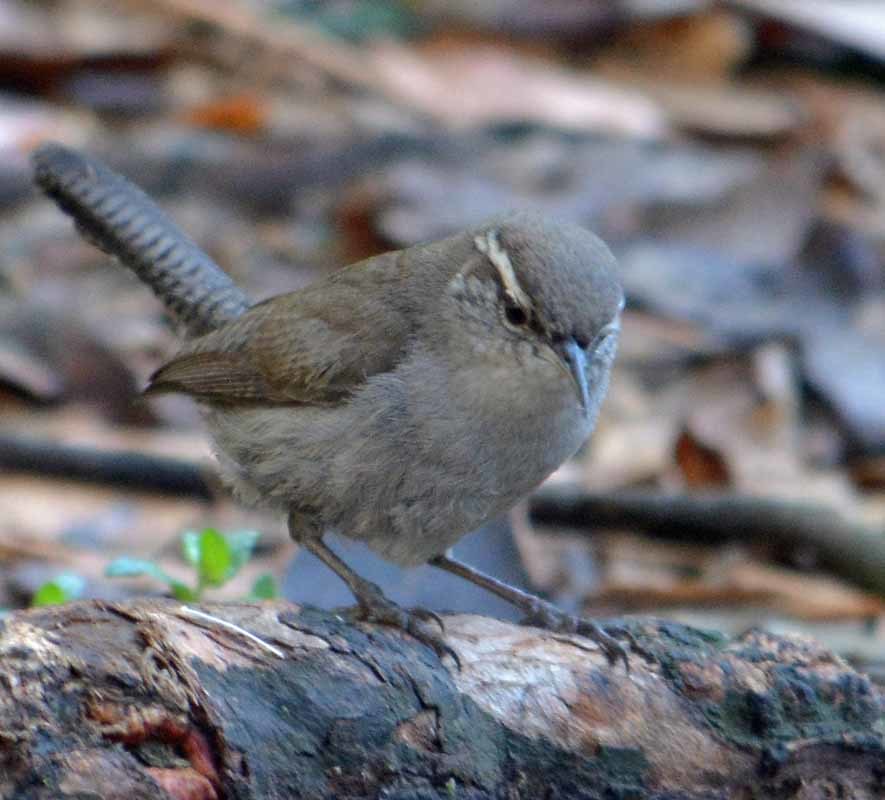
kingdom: Animalia
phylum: Chordata
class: Aves
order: Passeriformes
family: Troglodytidae
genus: Thryomanes
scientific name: Thryomanes bewickii
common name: Bewick's wren
